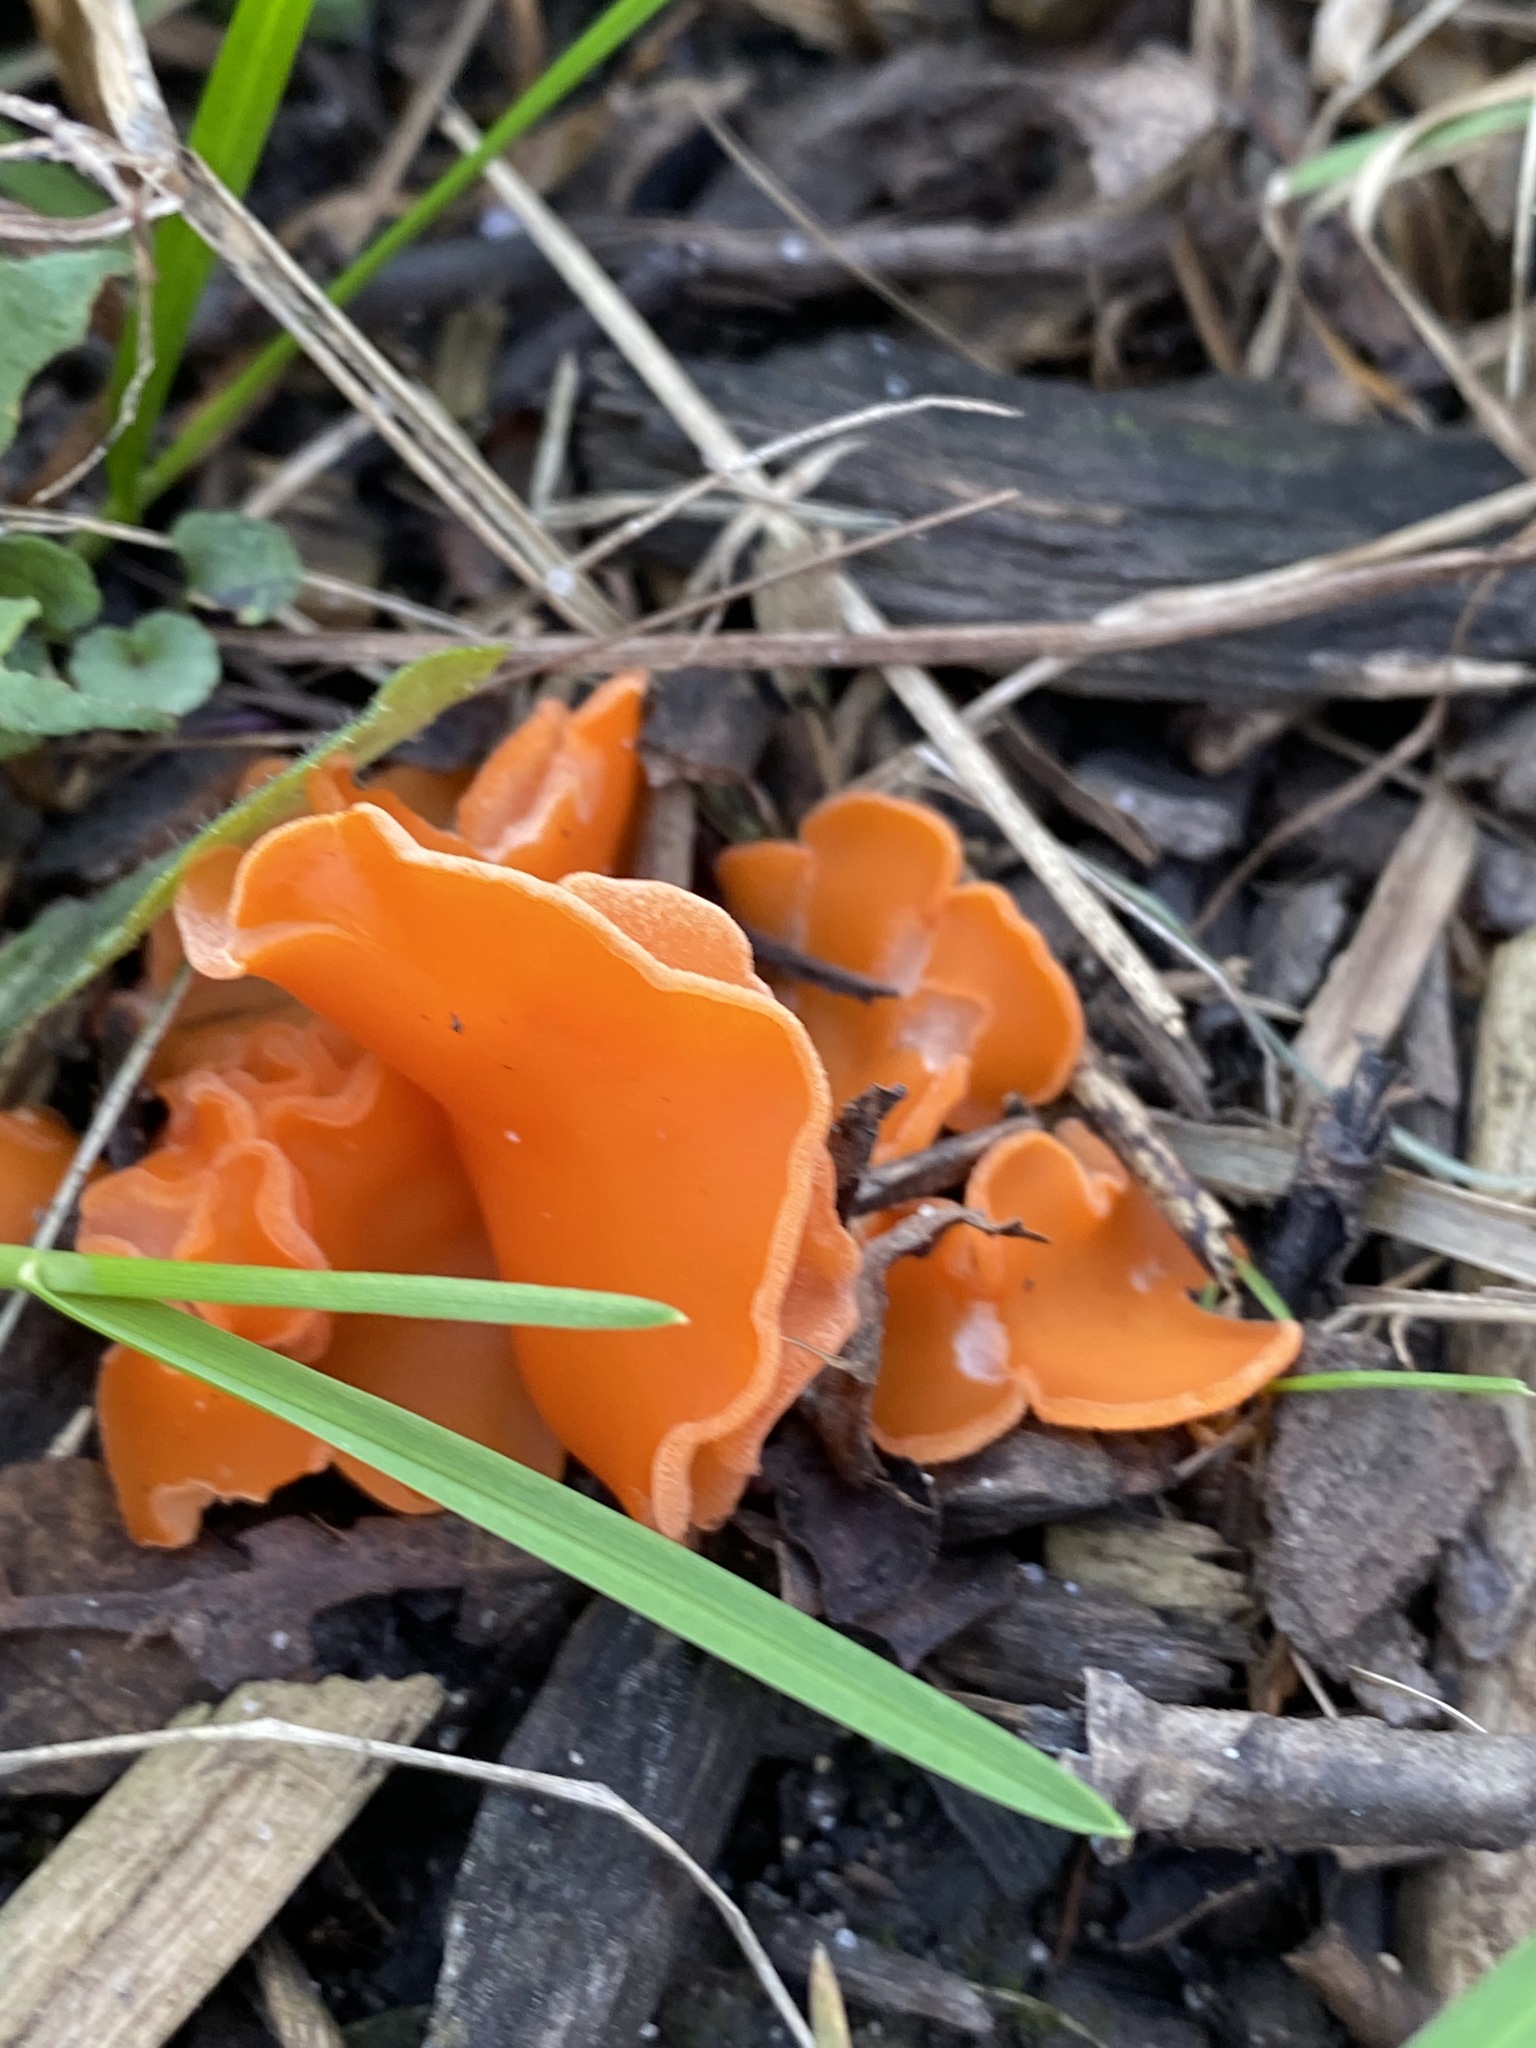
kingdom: Fungi
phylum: Ascomycota
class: Pezizomycetes
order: Pezizales
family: Pyronemataceae
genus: Aleuria
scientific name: Aleuria aurantia
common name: Orange peel fungus
